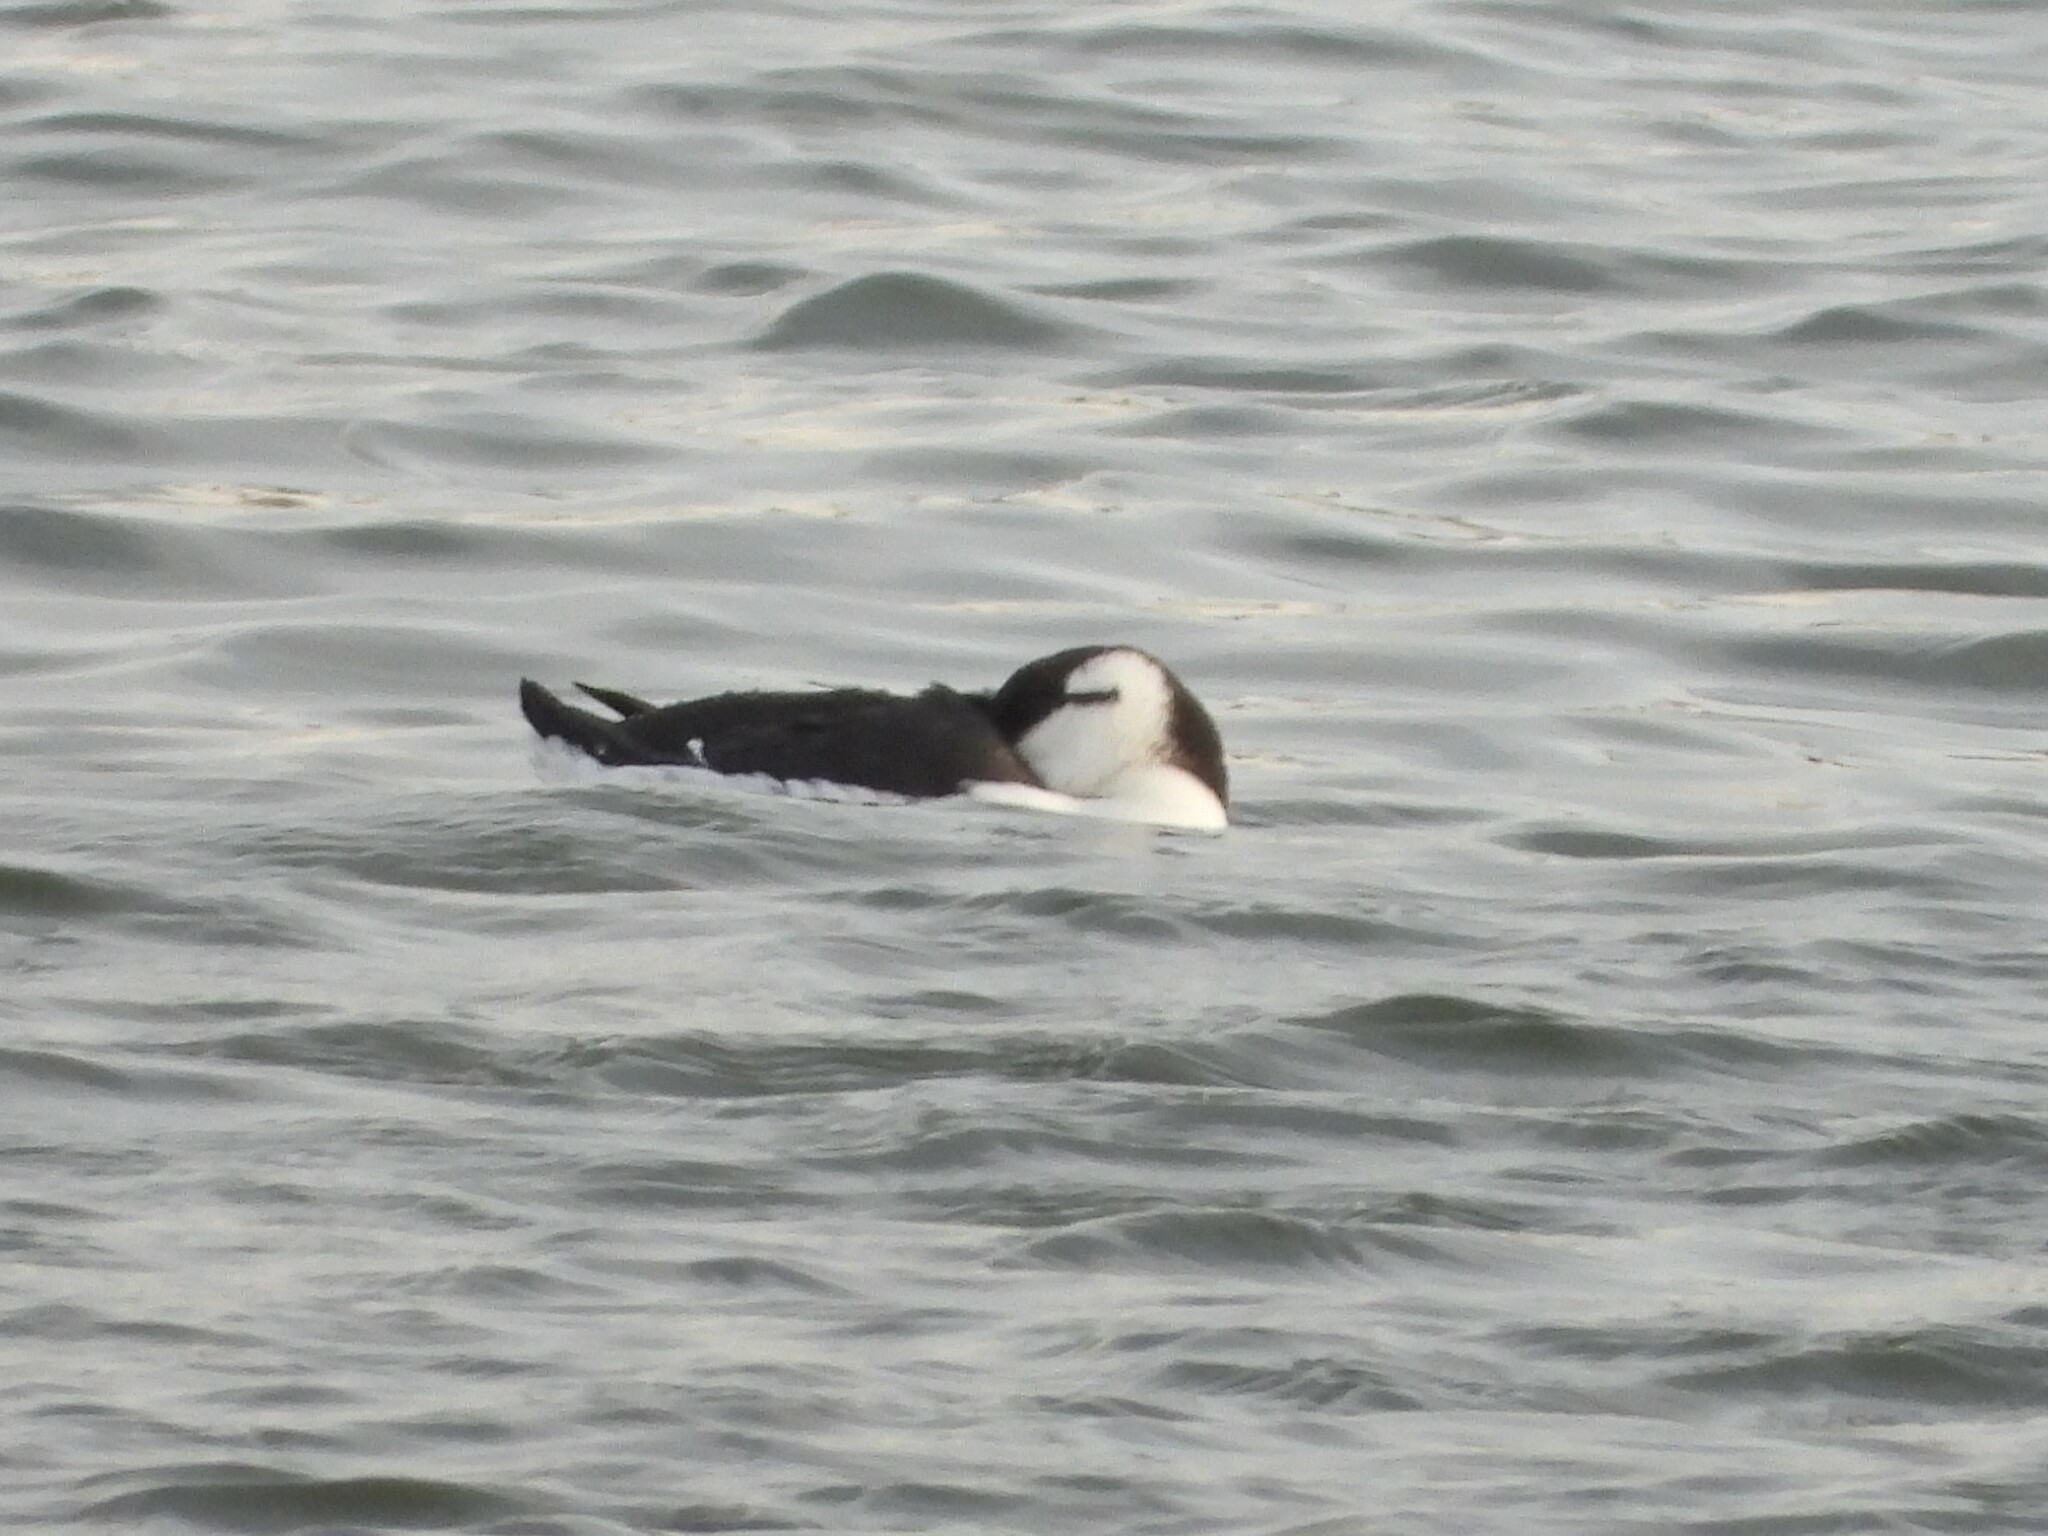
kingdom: Animalia
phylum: Chordata
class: Aves
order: Charadriiformes
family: Alcidae
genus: Uria
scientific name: Uria aalge
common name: Common murre
